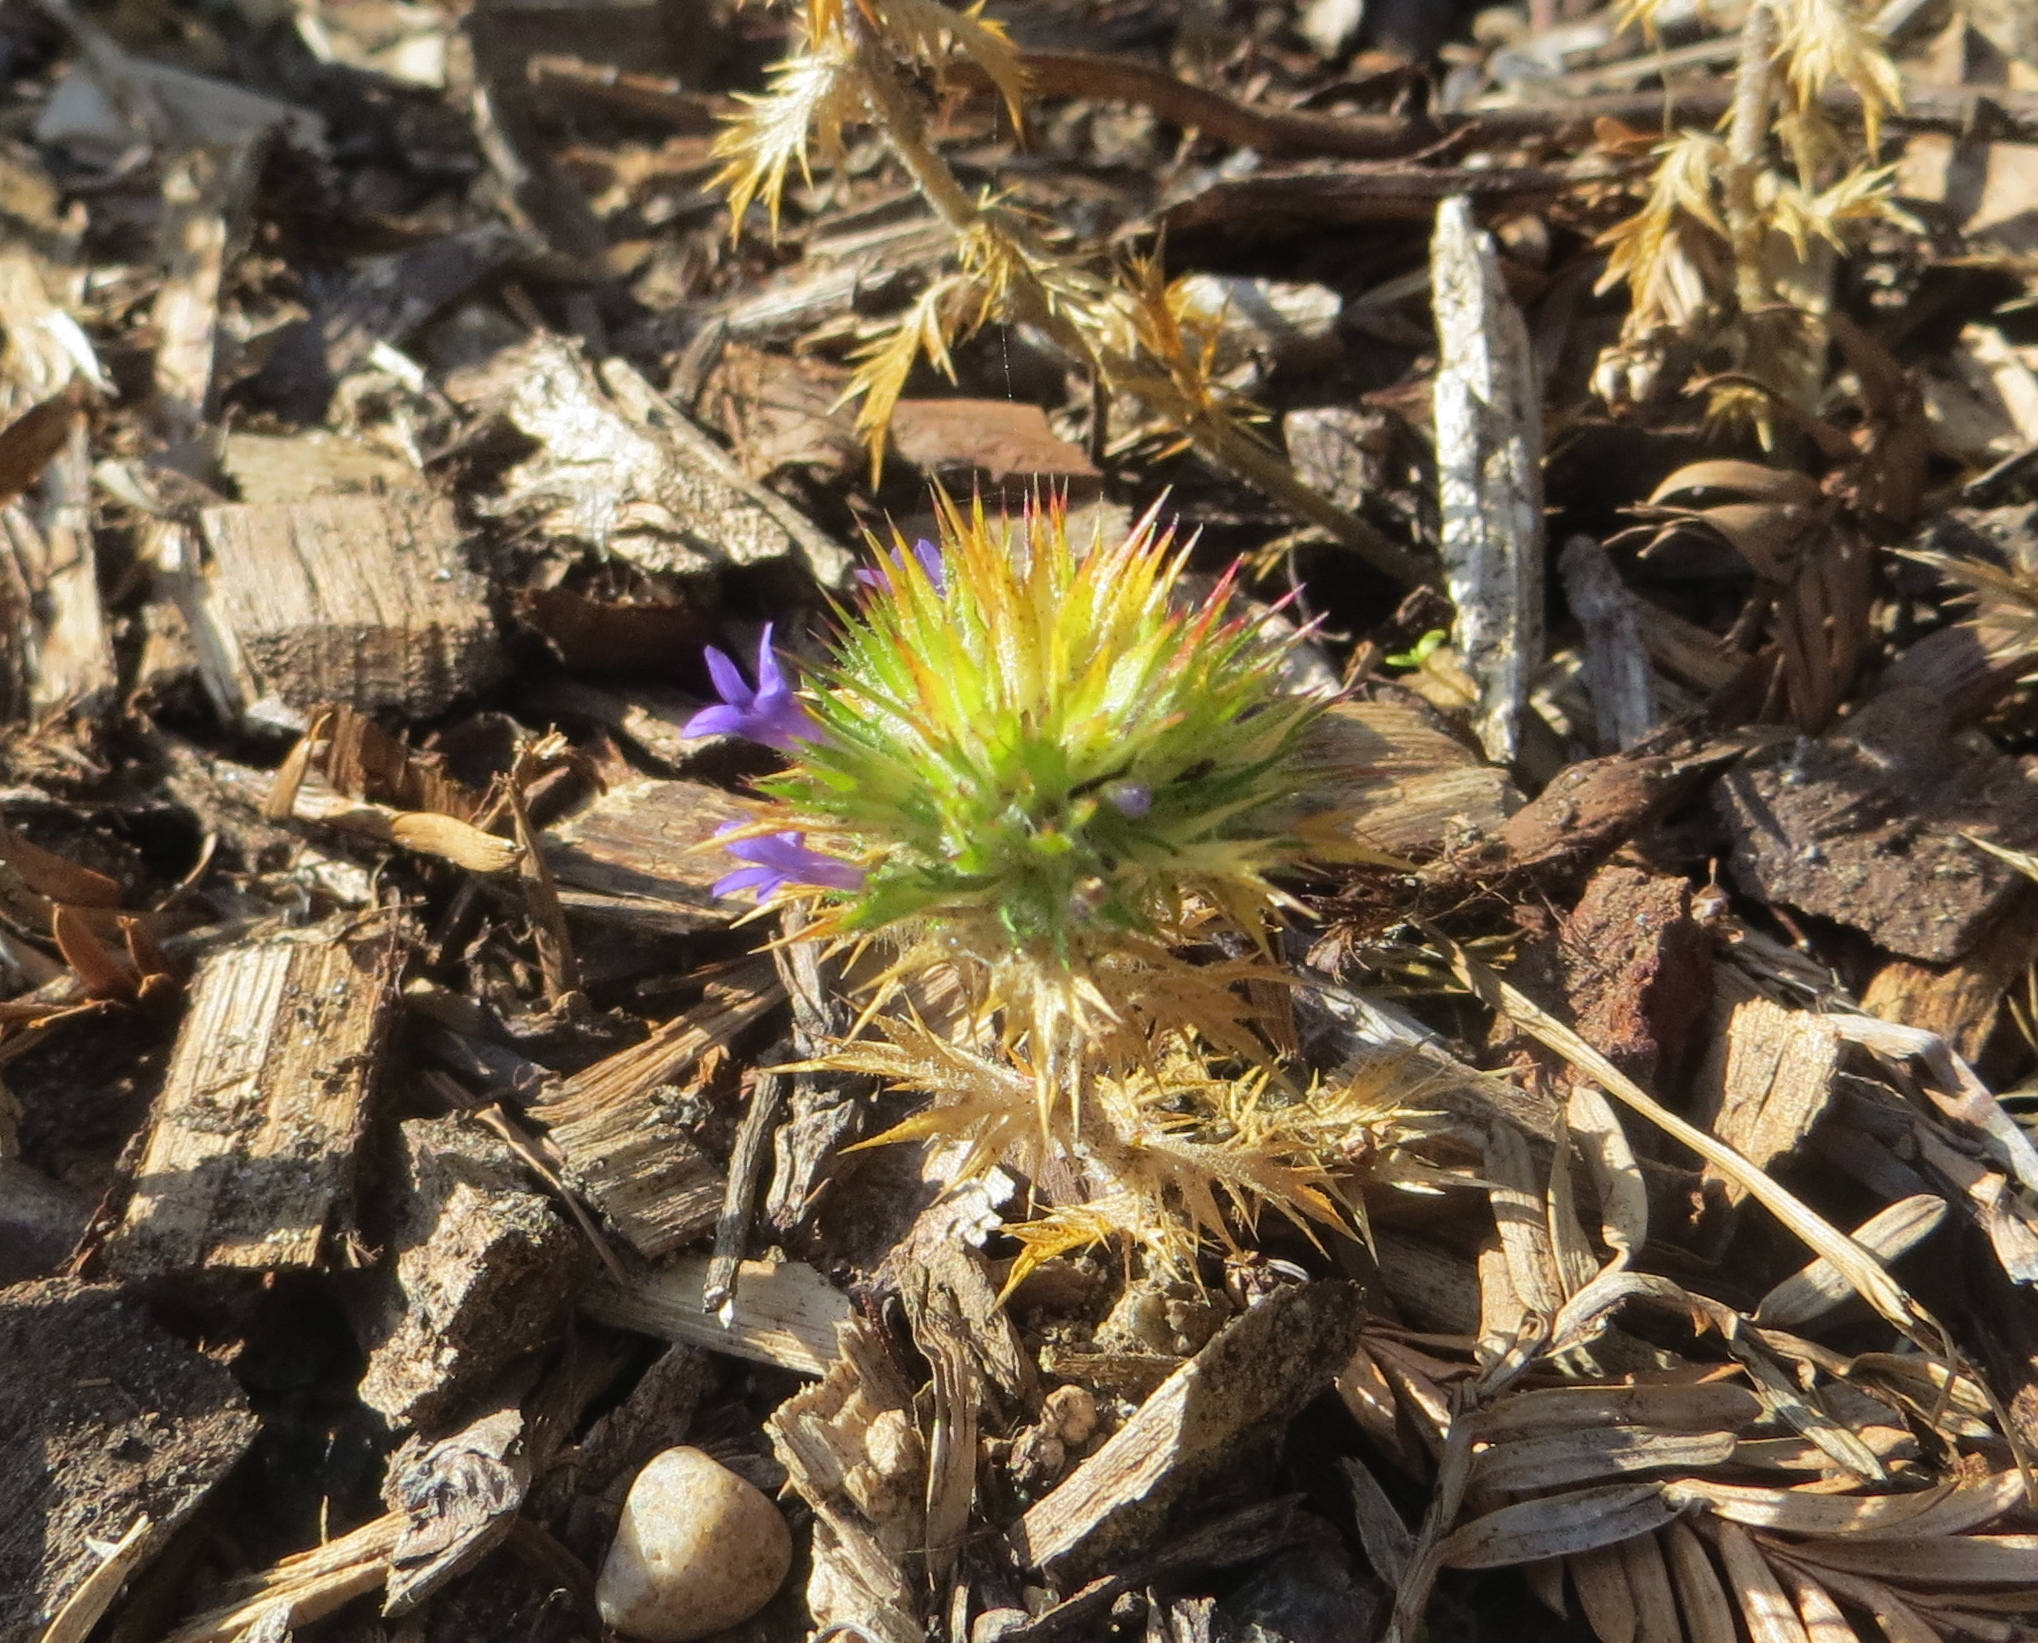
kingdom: Plantae
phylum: Tracheophyta
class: Magnoliopsida
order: Ericales
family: Polemoniaceae
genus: Navarretia
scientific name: Navarretia squarrosa
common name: Skunkweed
